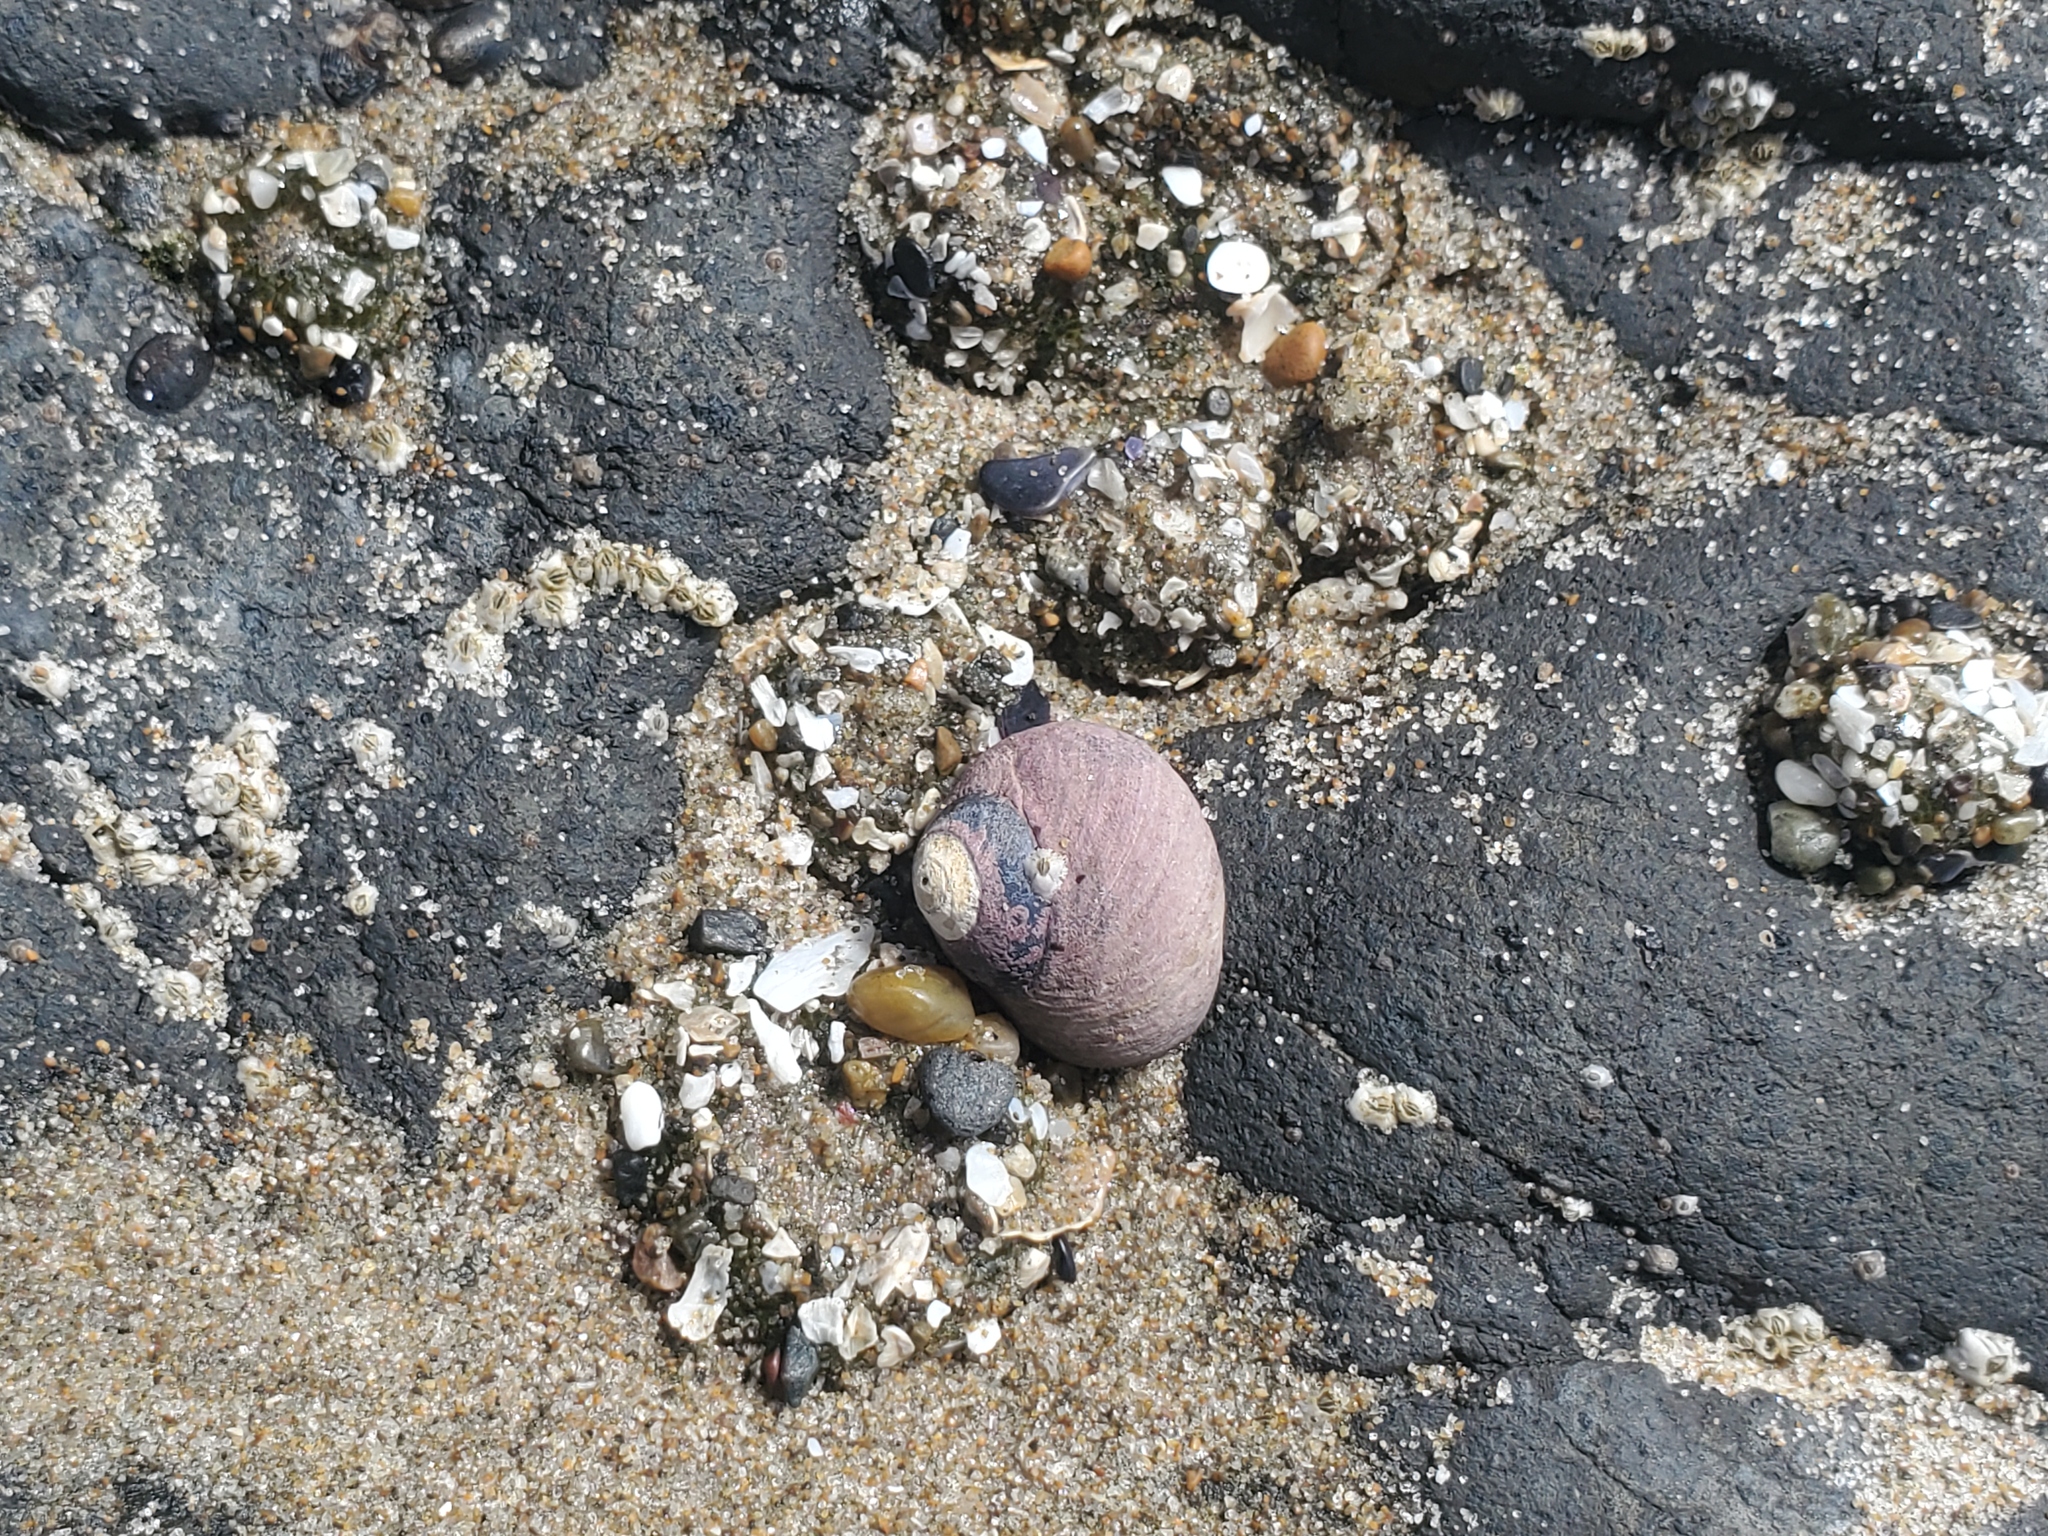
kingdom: Animalia
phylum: Mollusca
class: Gastropoda
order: Trochida
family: Tegulidae
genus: Tegula
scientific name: Tegula funebralis
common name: Black tegula
